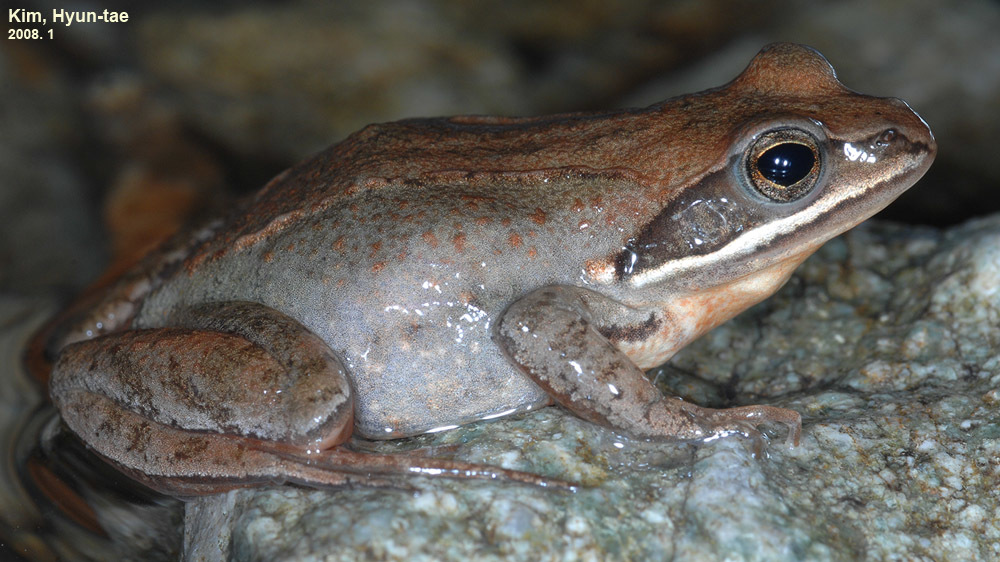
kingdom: Animalia
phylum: Chordata
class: Amphibia
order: Anura
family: Ranidae
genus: Rana
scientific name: Rana coreana
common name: Korean brown frog
